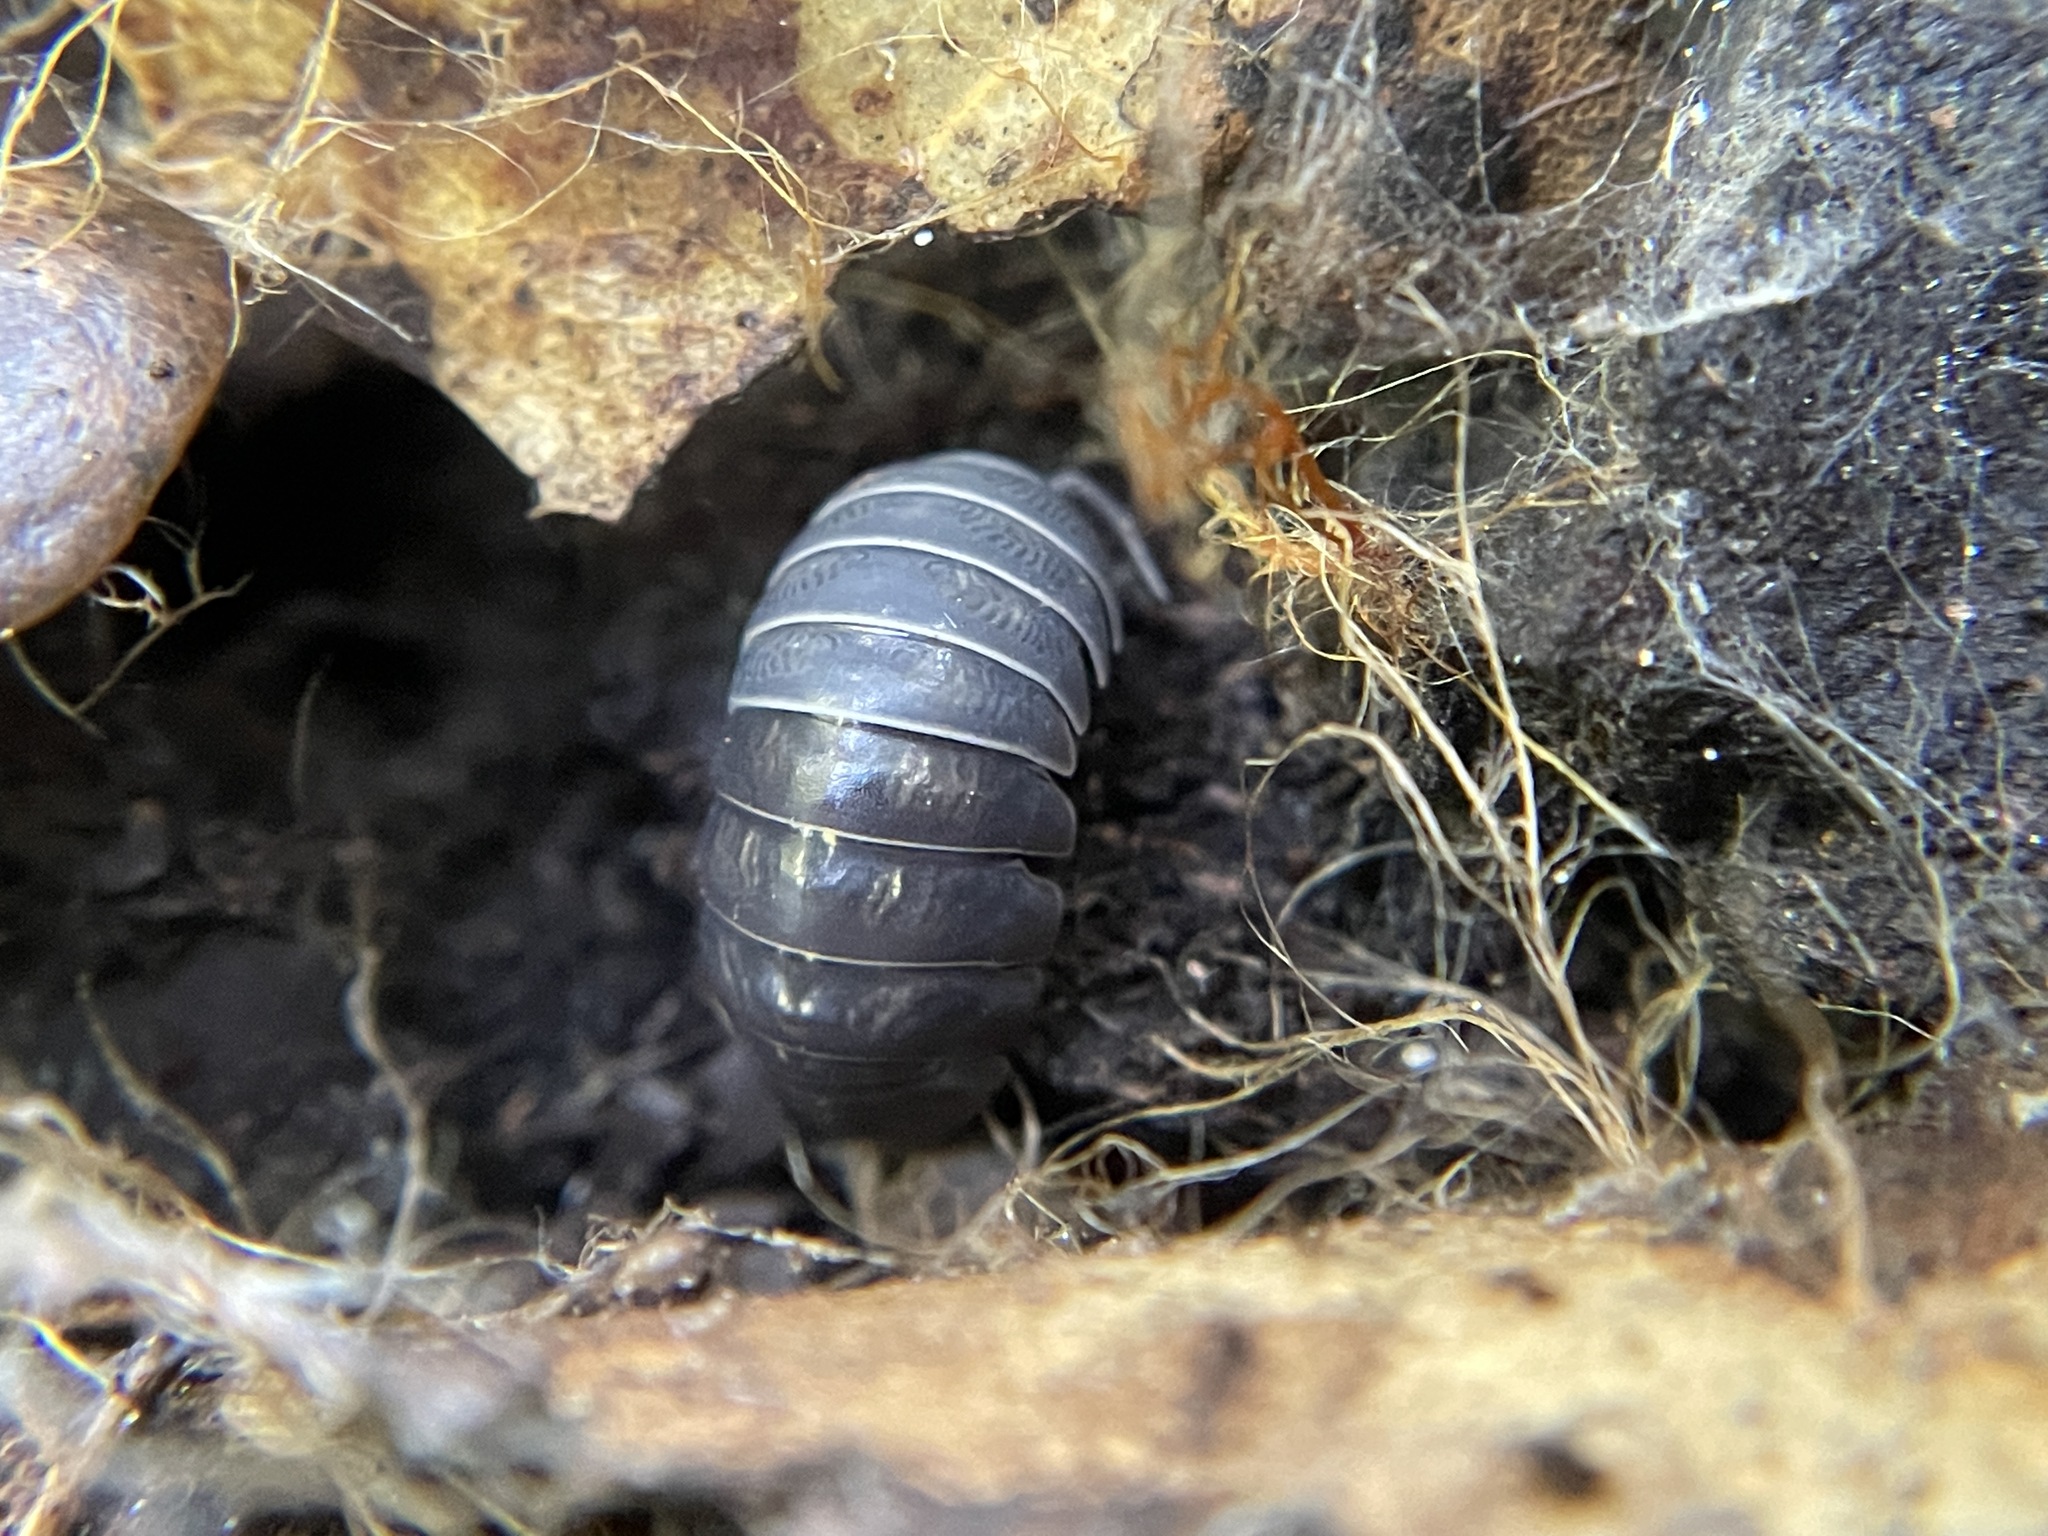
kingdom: Animalia
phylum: Arthropoda
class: Malacostraca
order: Isopoda
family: Armadillidiidae
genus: Armadillidium
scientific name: Armadillidium vulgare
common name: Common pill woodlouse
